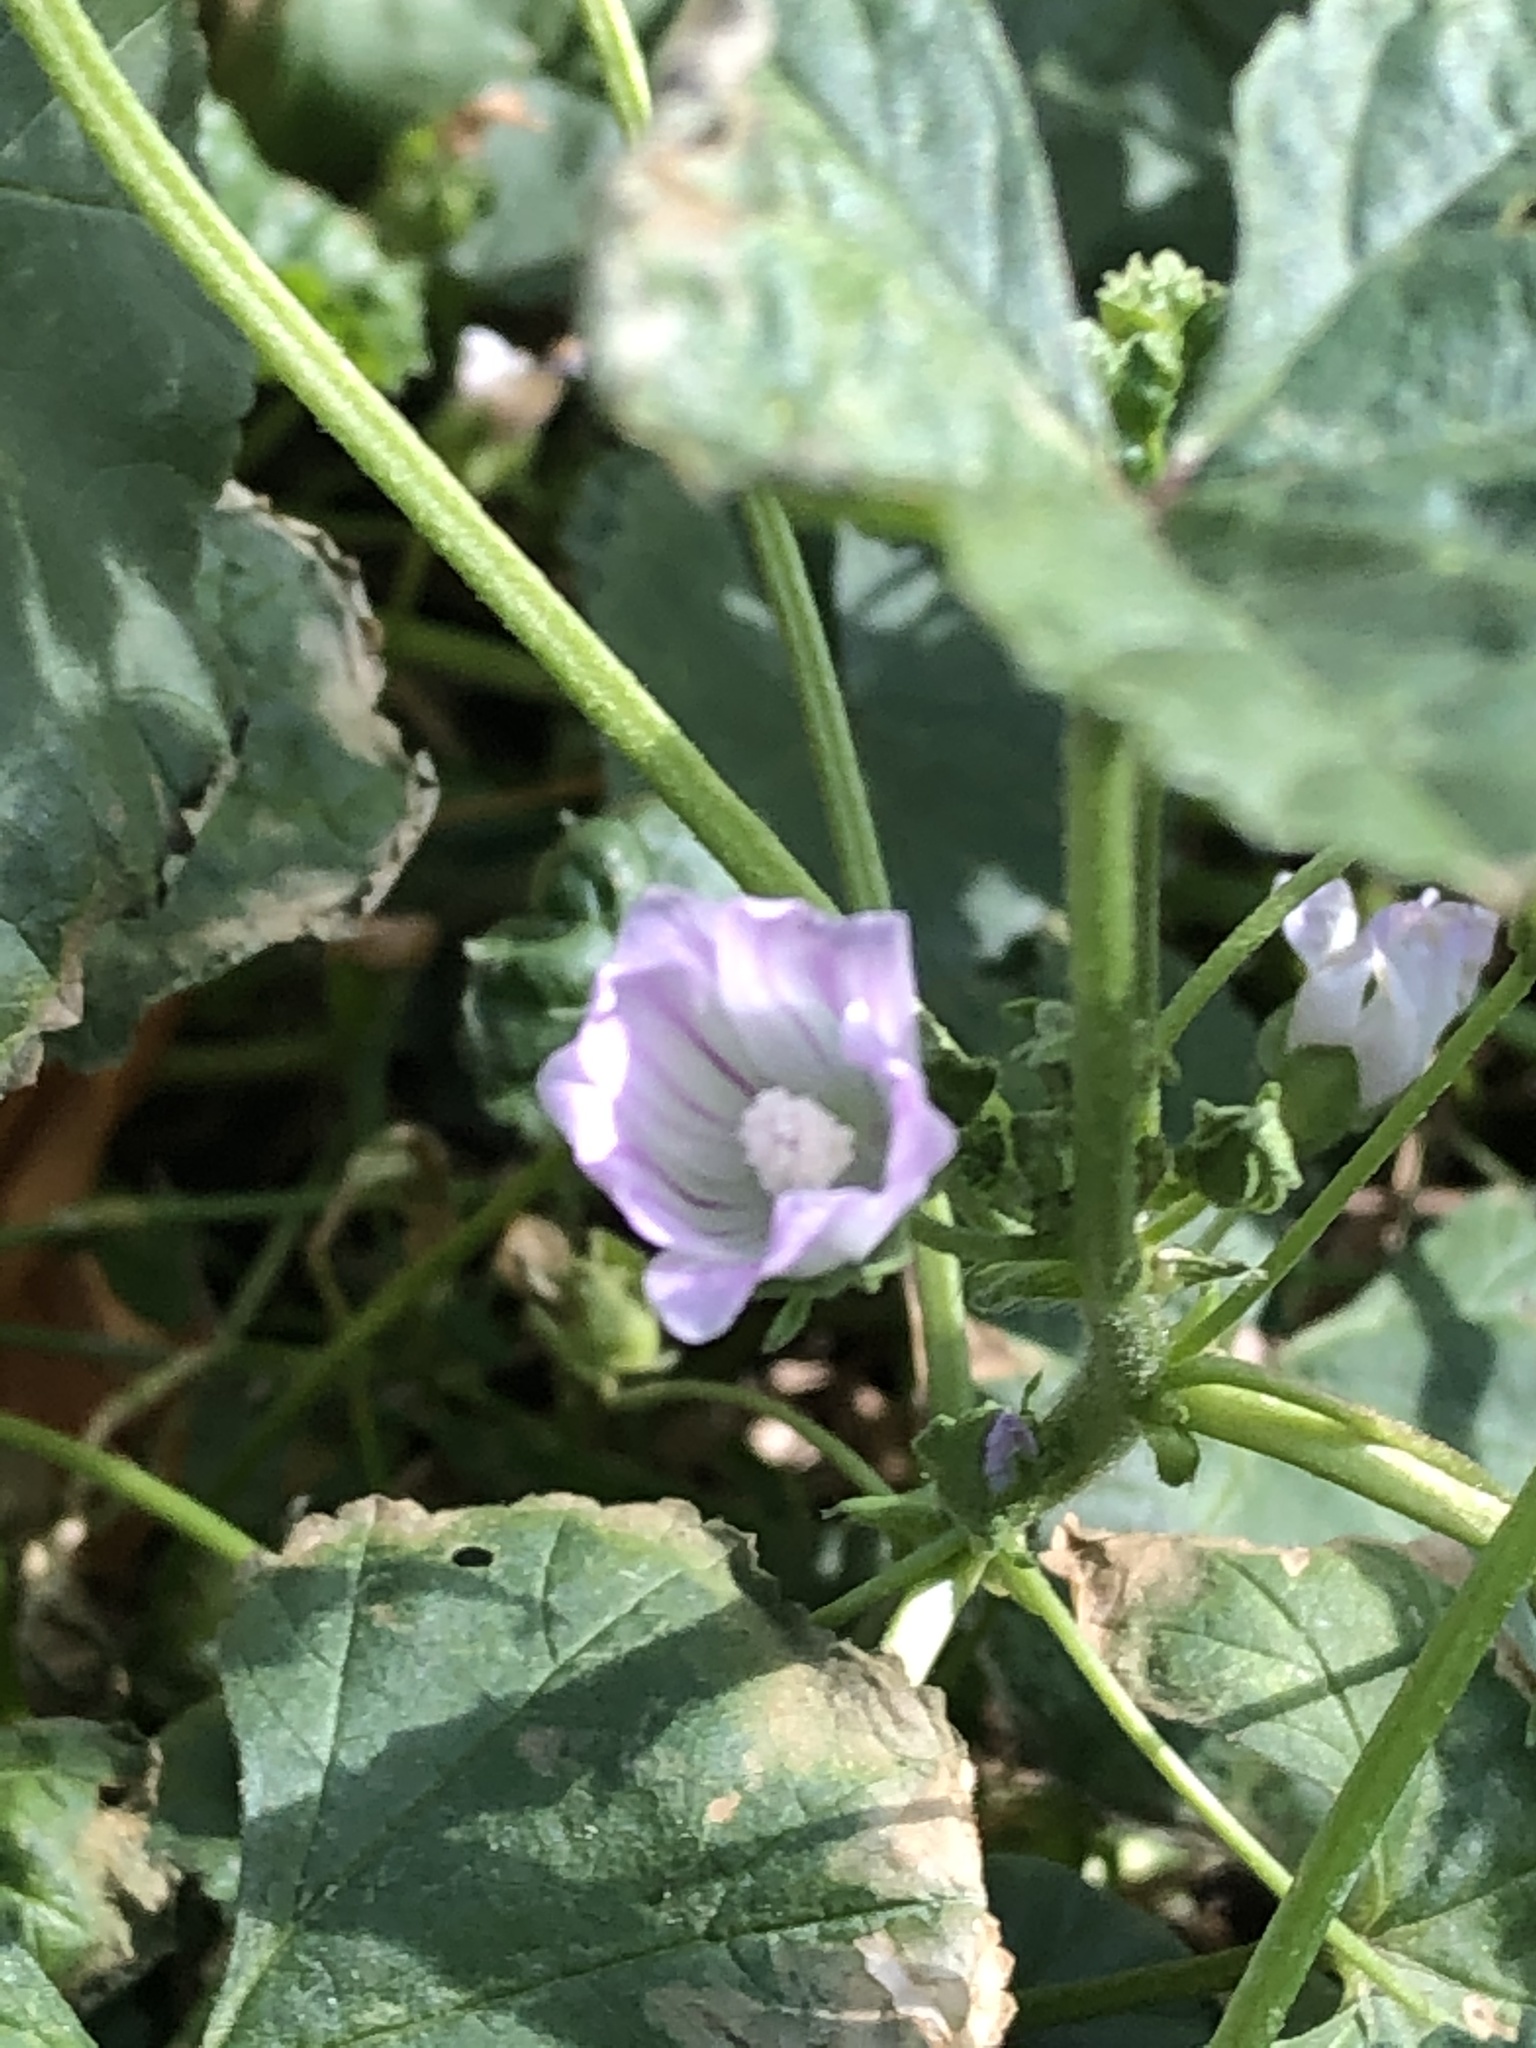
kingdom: Plantae
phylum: Tracheophyta
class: Magnoliopsida
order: Malvales
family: Malvaceae
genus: Malva
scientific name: Malva neglecta
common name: Common mallow
